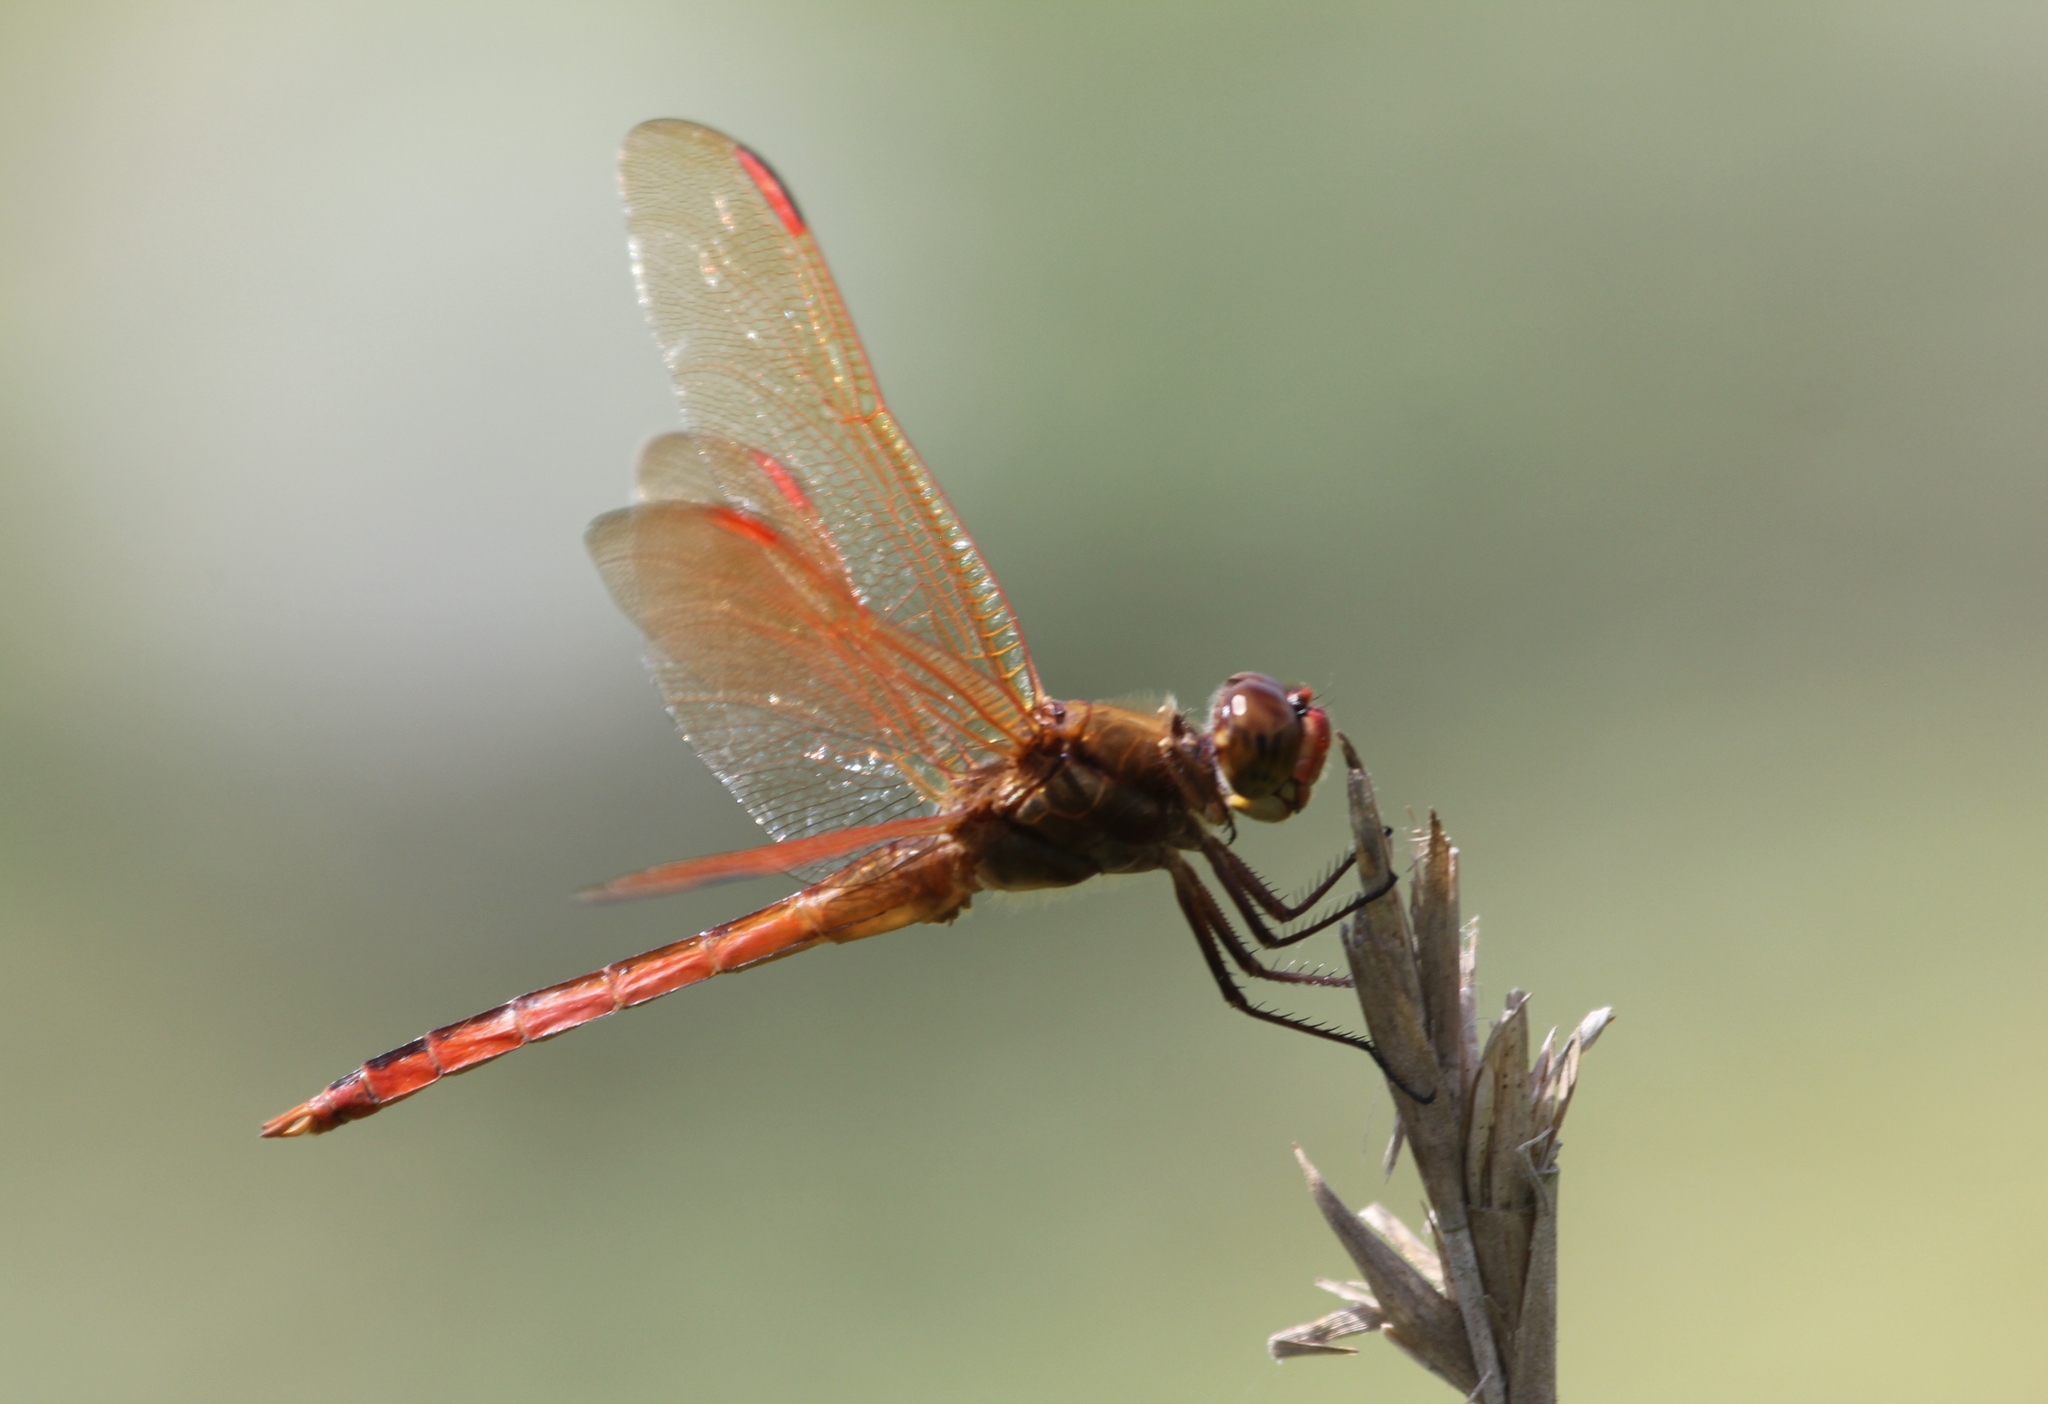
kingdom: Animalia
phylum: Arthropoda
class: Insecta
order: Odonata
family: Libellulidae
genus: Libellula
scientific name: Libellula auripennis
